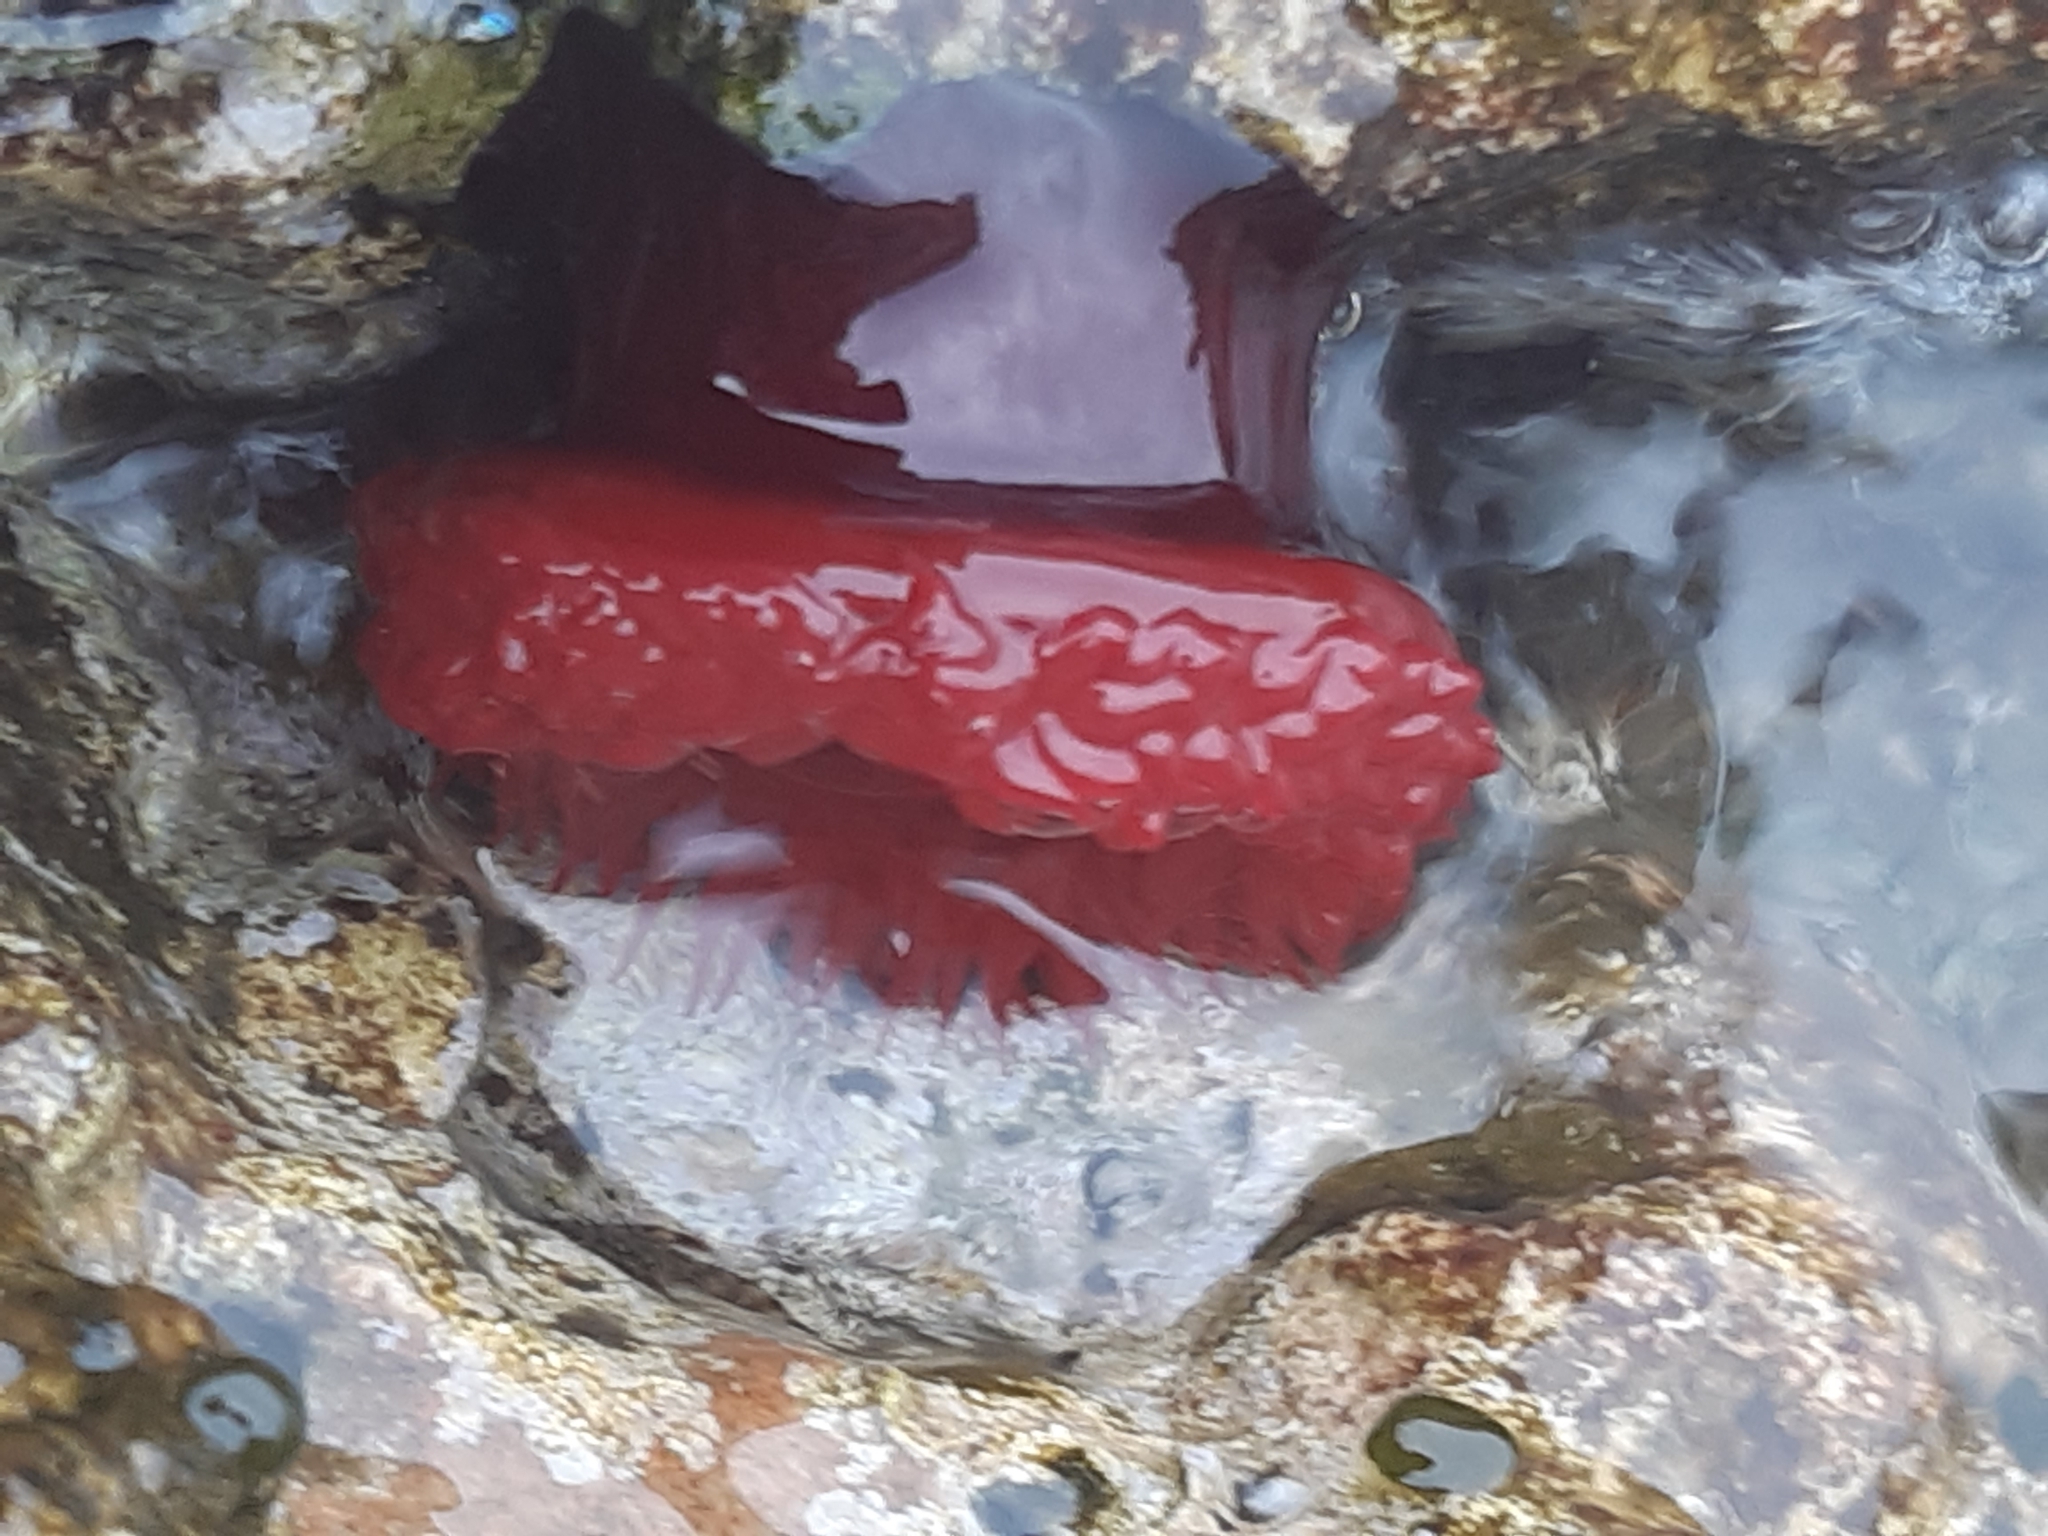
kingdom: Animalia
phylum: Cnidaria
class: Anthozoa
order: Actiniaria
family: Actiniidae
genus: Actinia
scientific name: Actinia mediterranea
